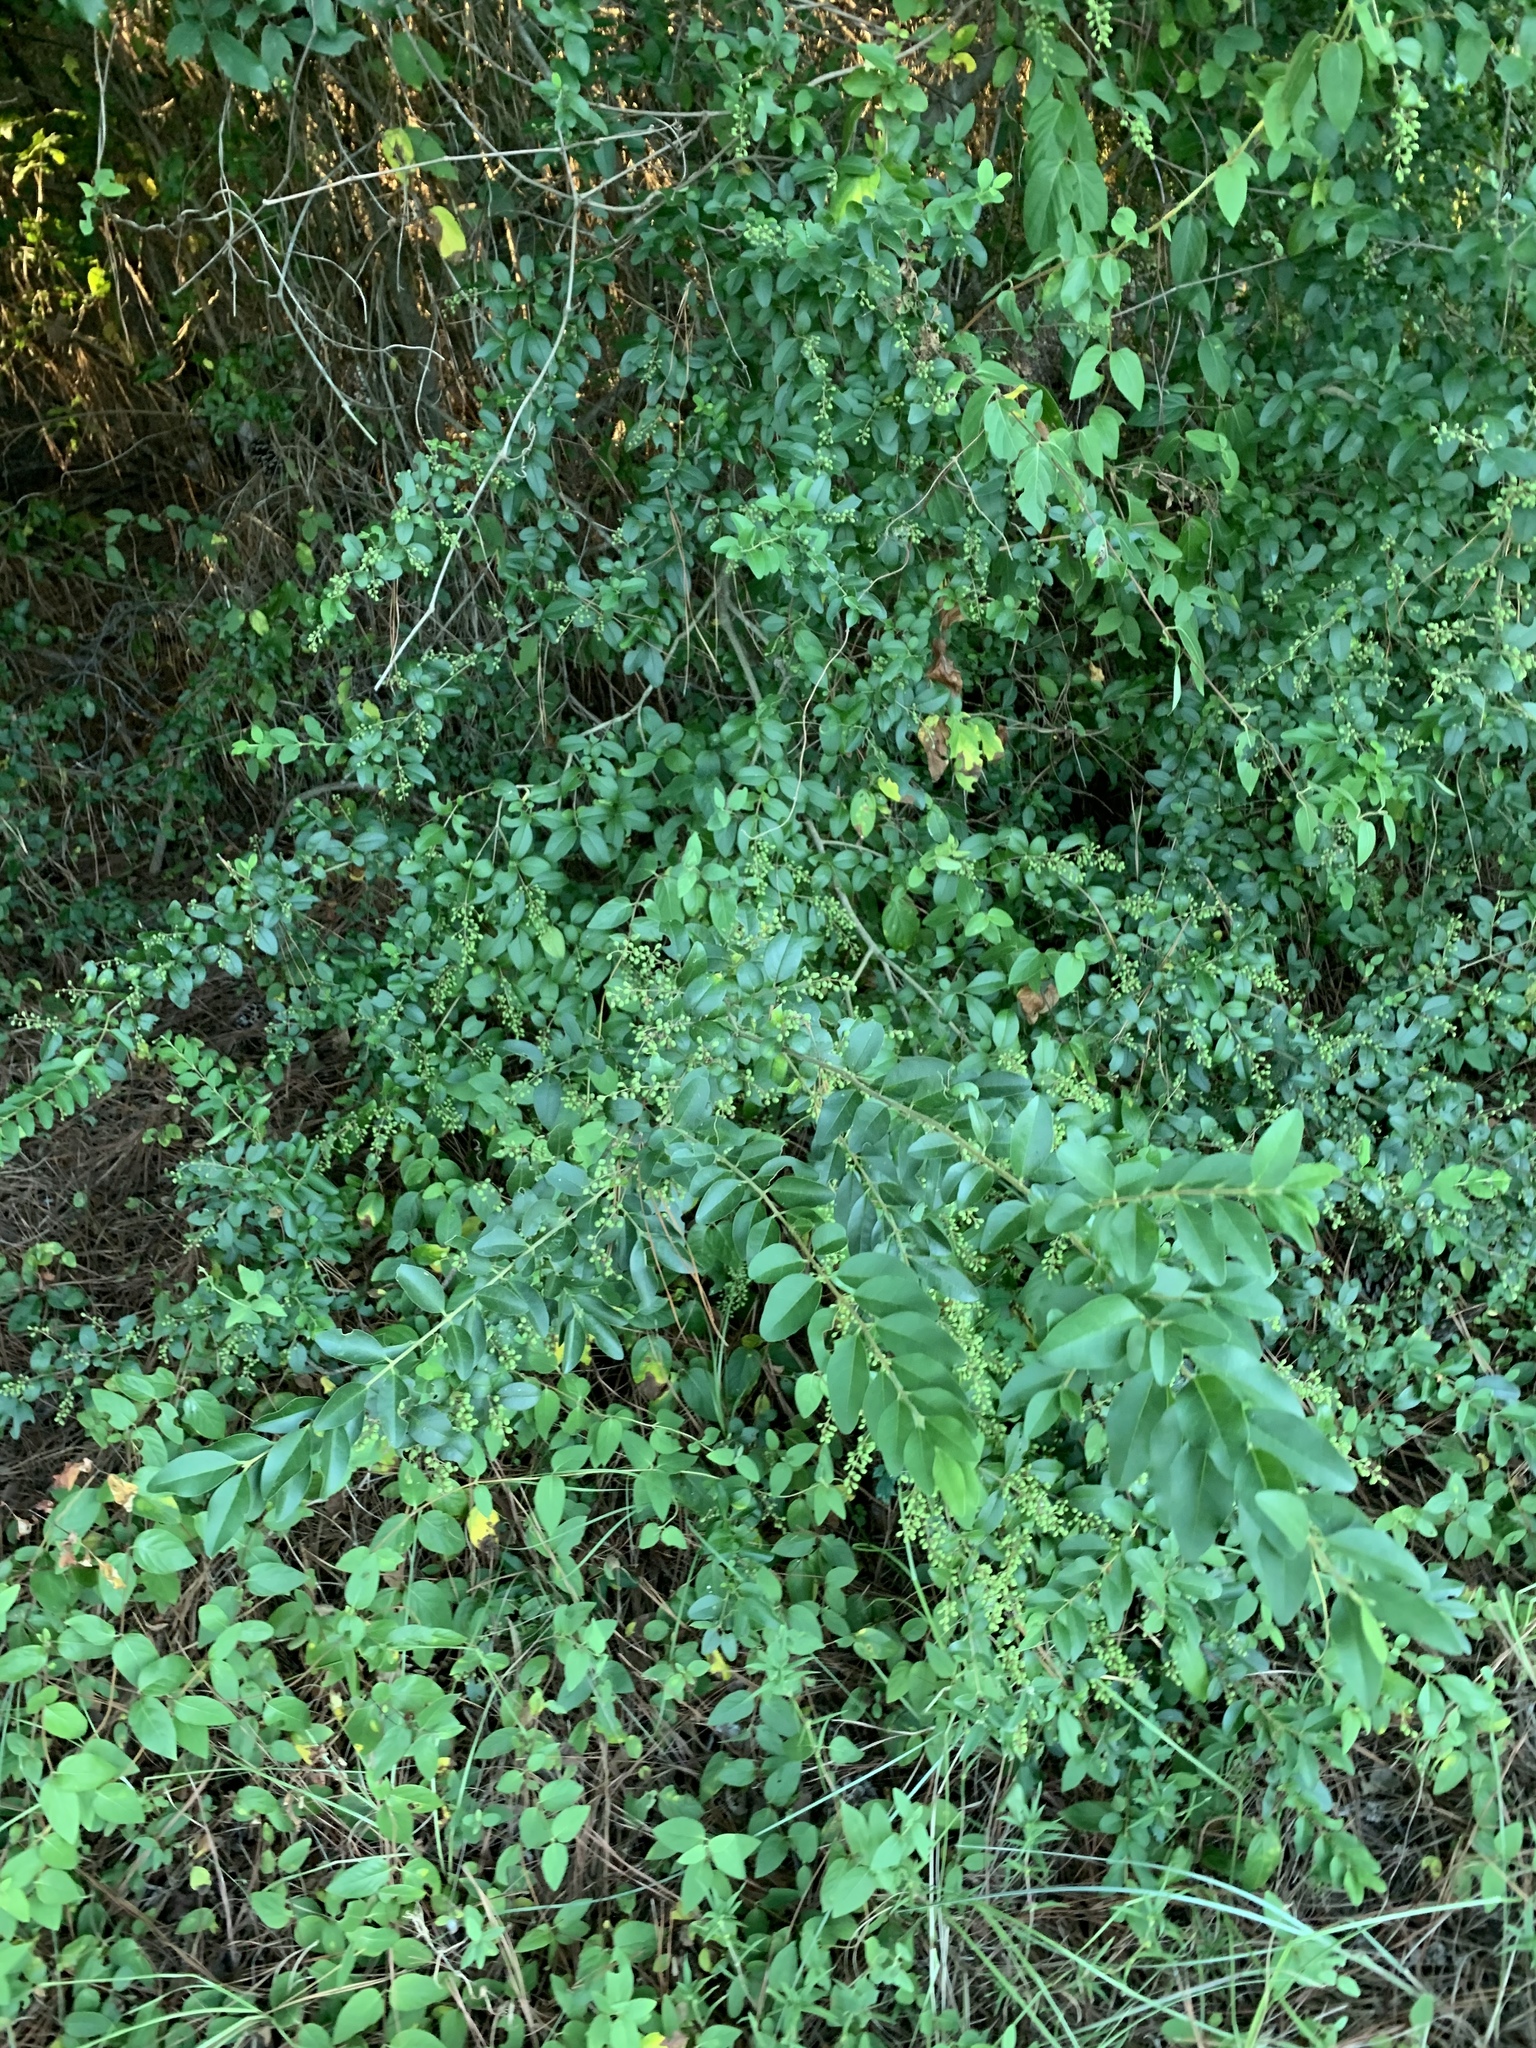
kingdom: Plantae
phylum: Tracheophyta
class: Magnoliopsida
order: Lamiales
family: Oleaceae
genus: Ligustrum
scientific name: Ligustrum sinense
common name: Chinese privet
